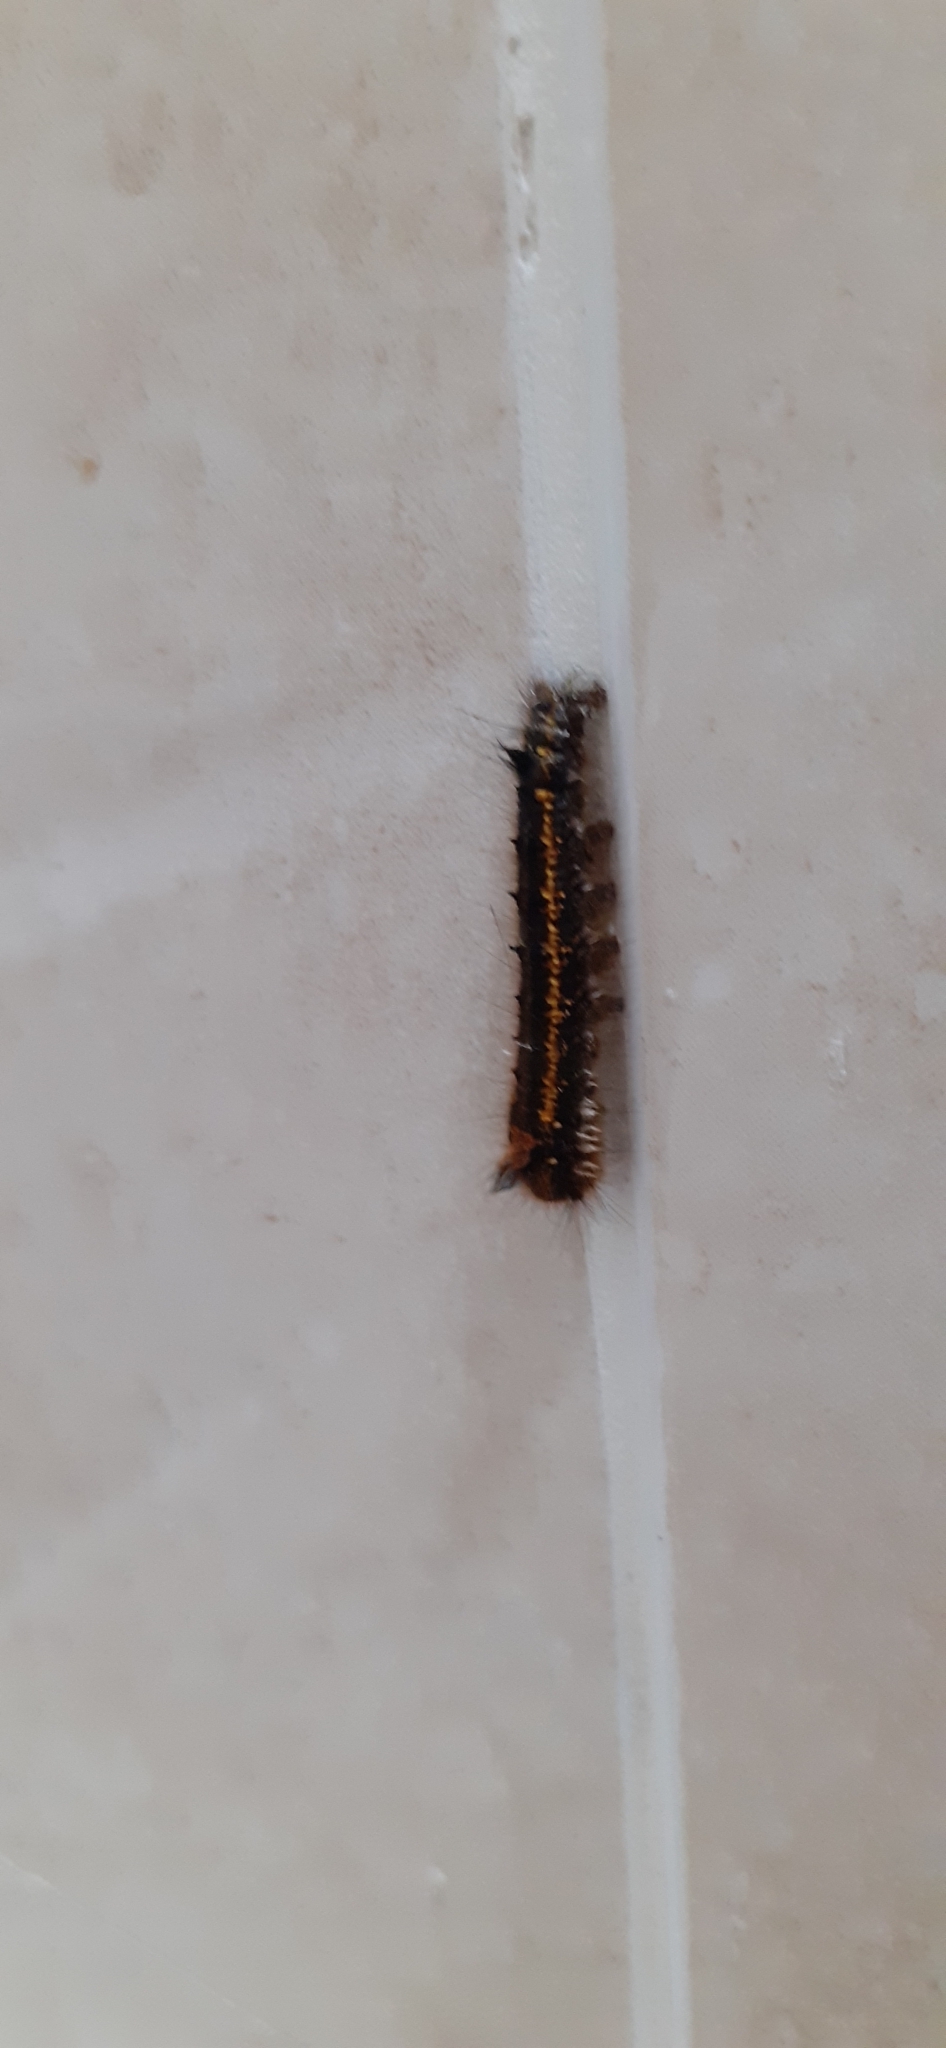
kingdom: Animalia
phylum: Arthropoda
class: Insecta
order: Lepidoptera
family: Lasiocampidae
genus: Euthrix
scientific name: Euthrix potatoria
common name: Drinker
